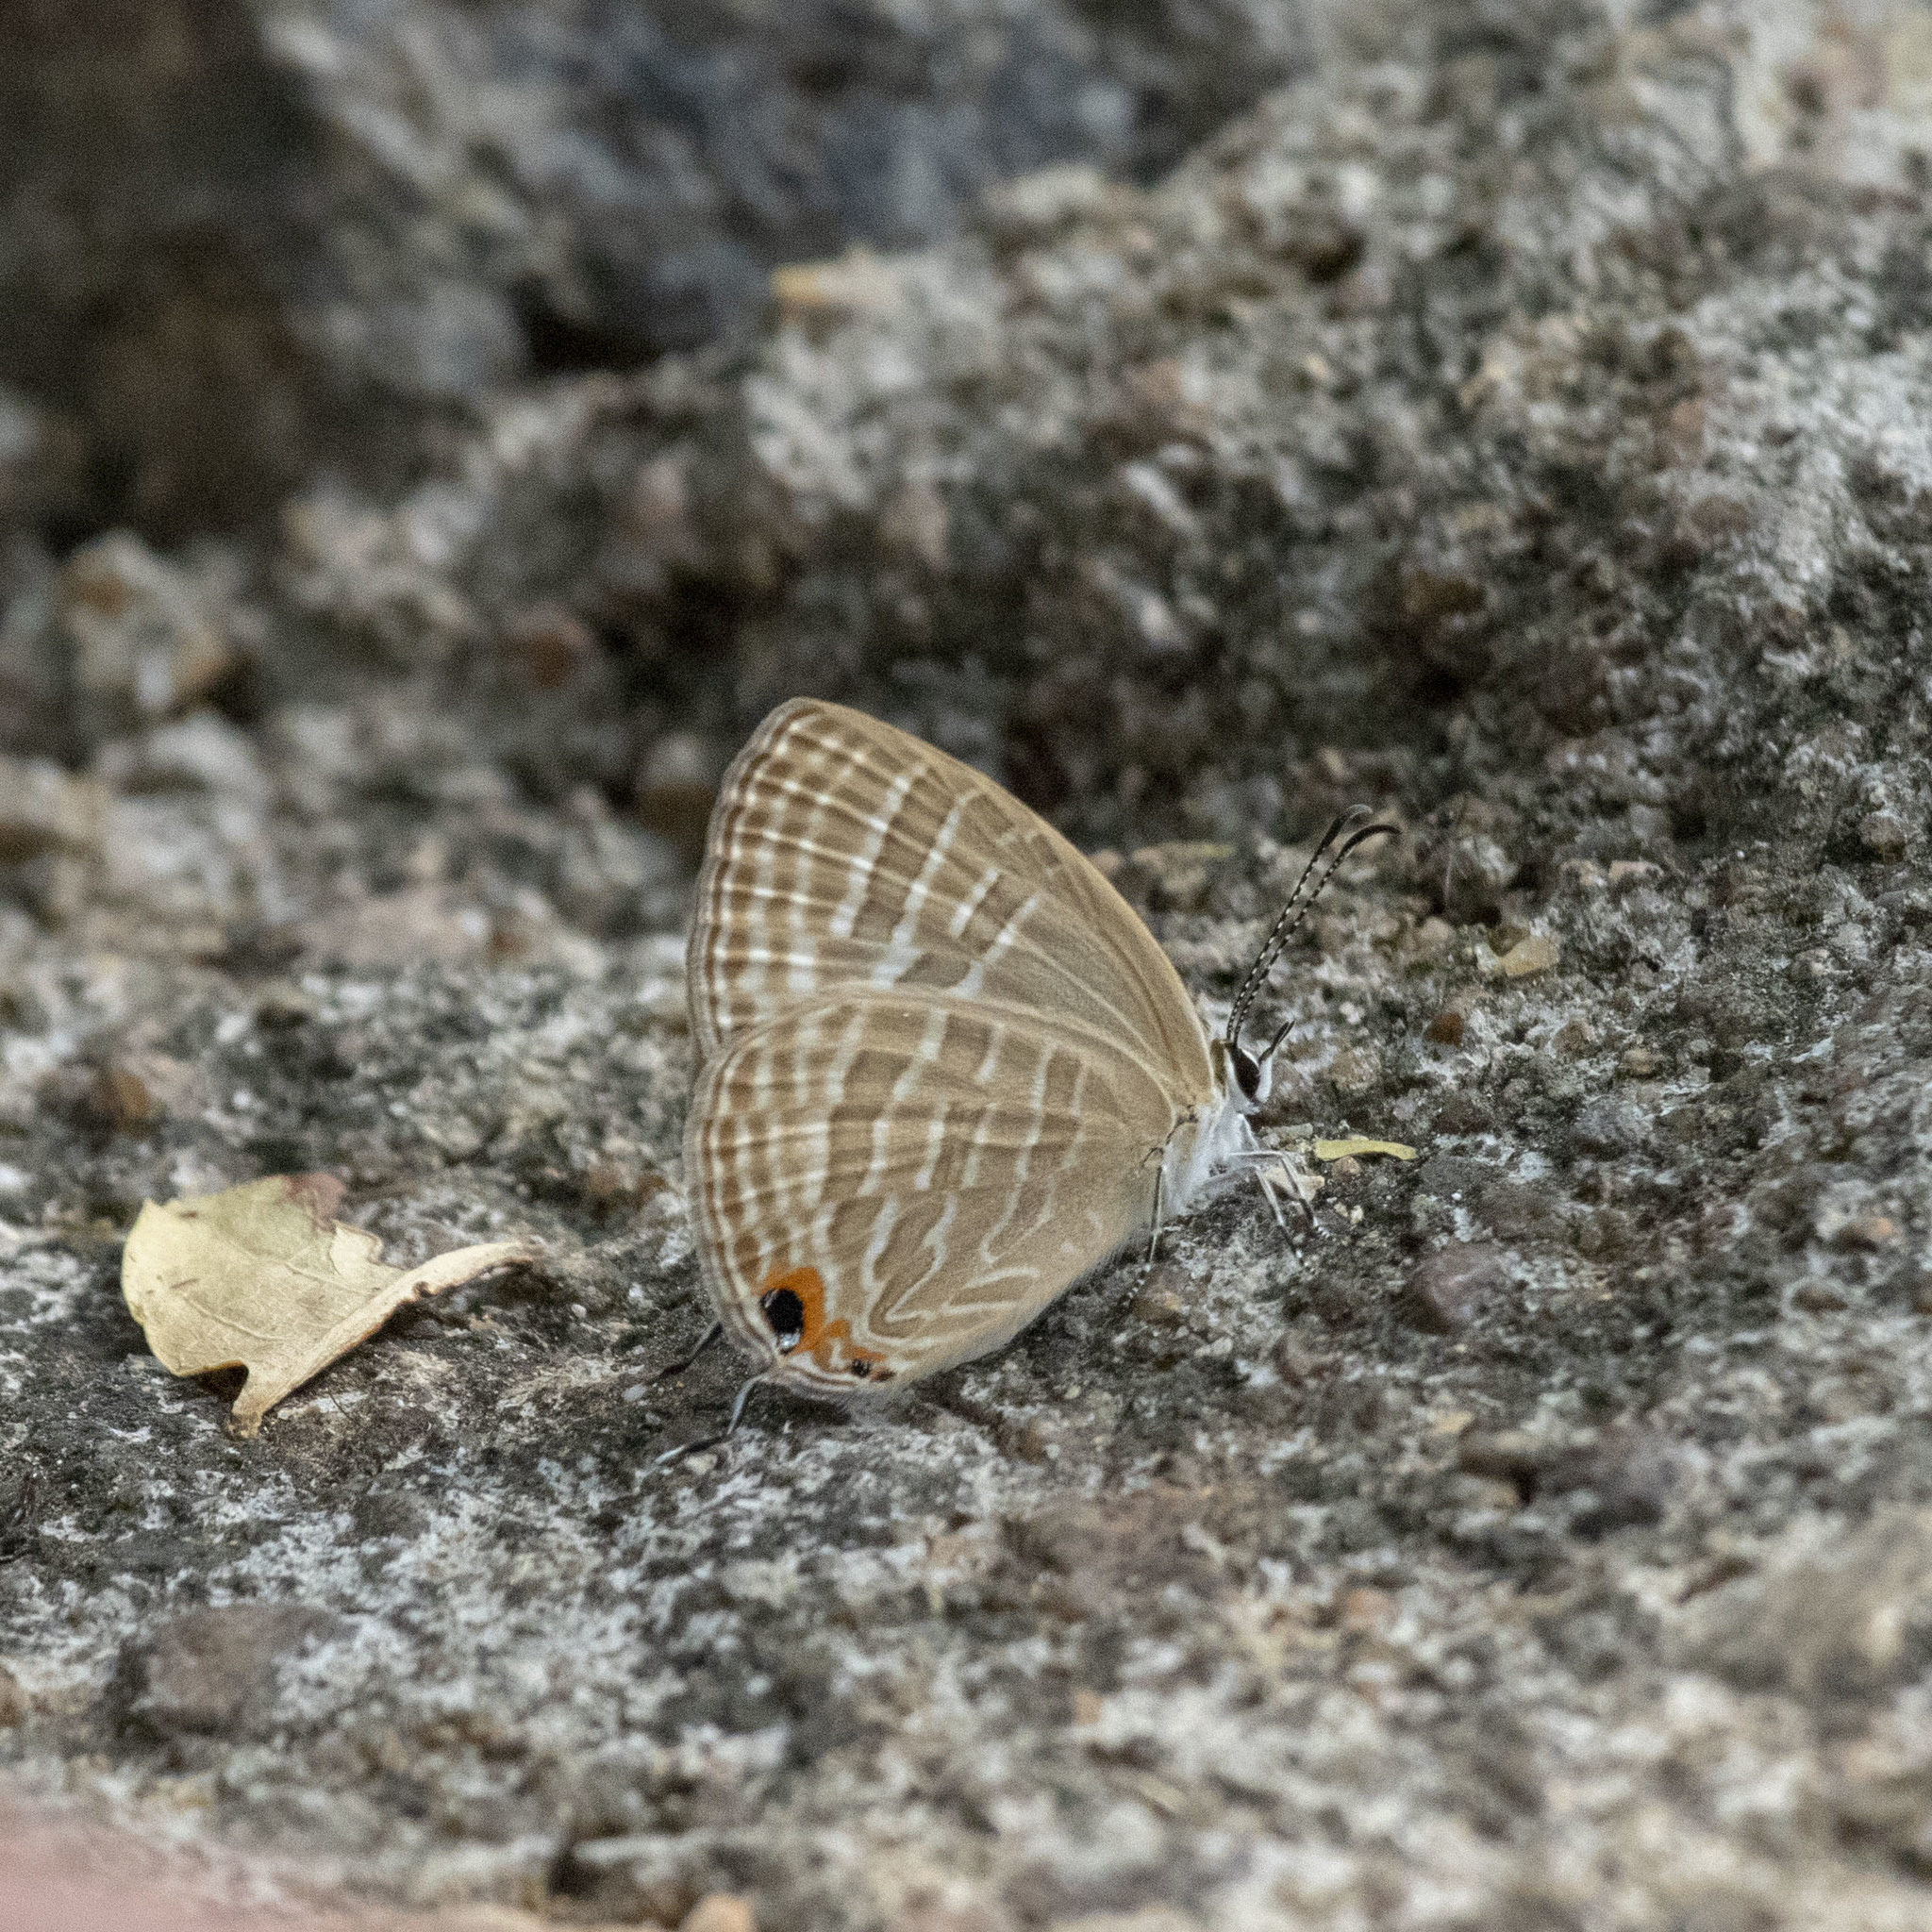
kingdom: Animalia
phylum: Arthropoda
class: Insecta
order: Lepidoptera
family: Lycaenidae
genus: Jamides
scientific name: Jamides celeno
